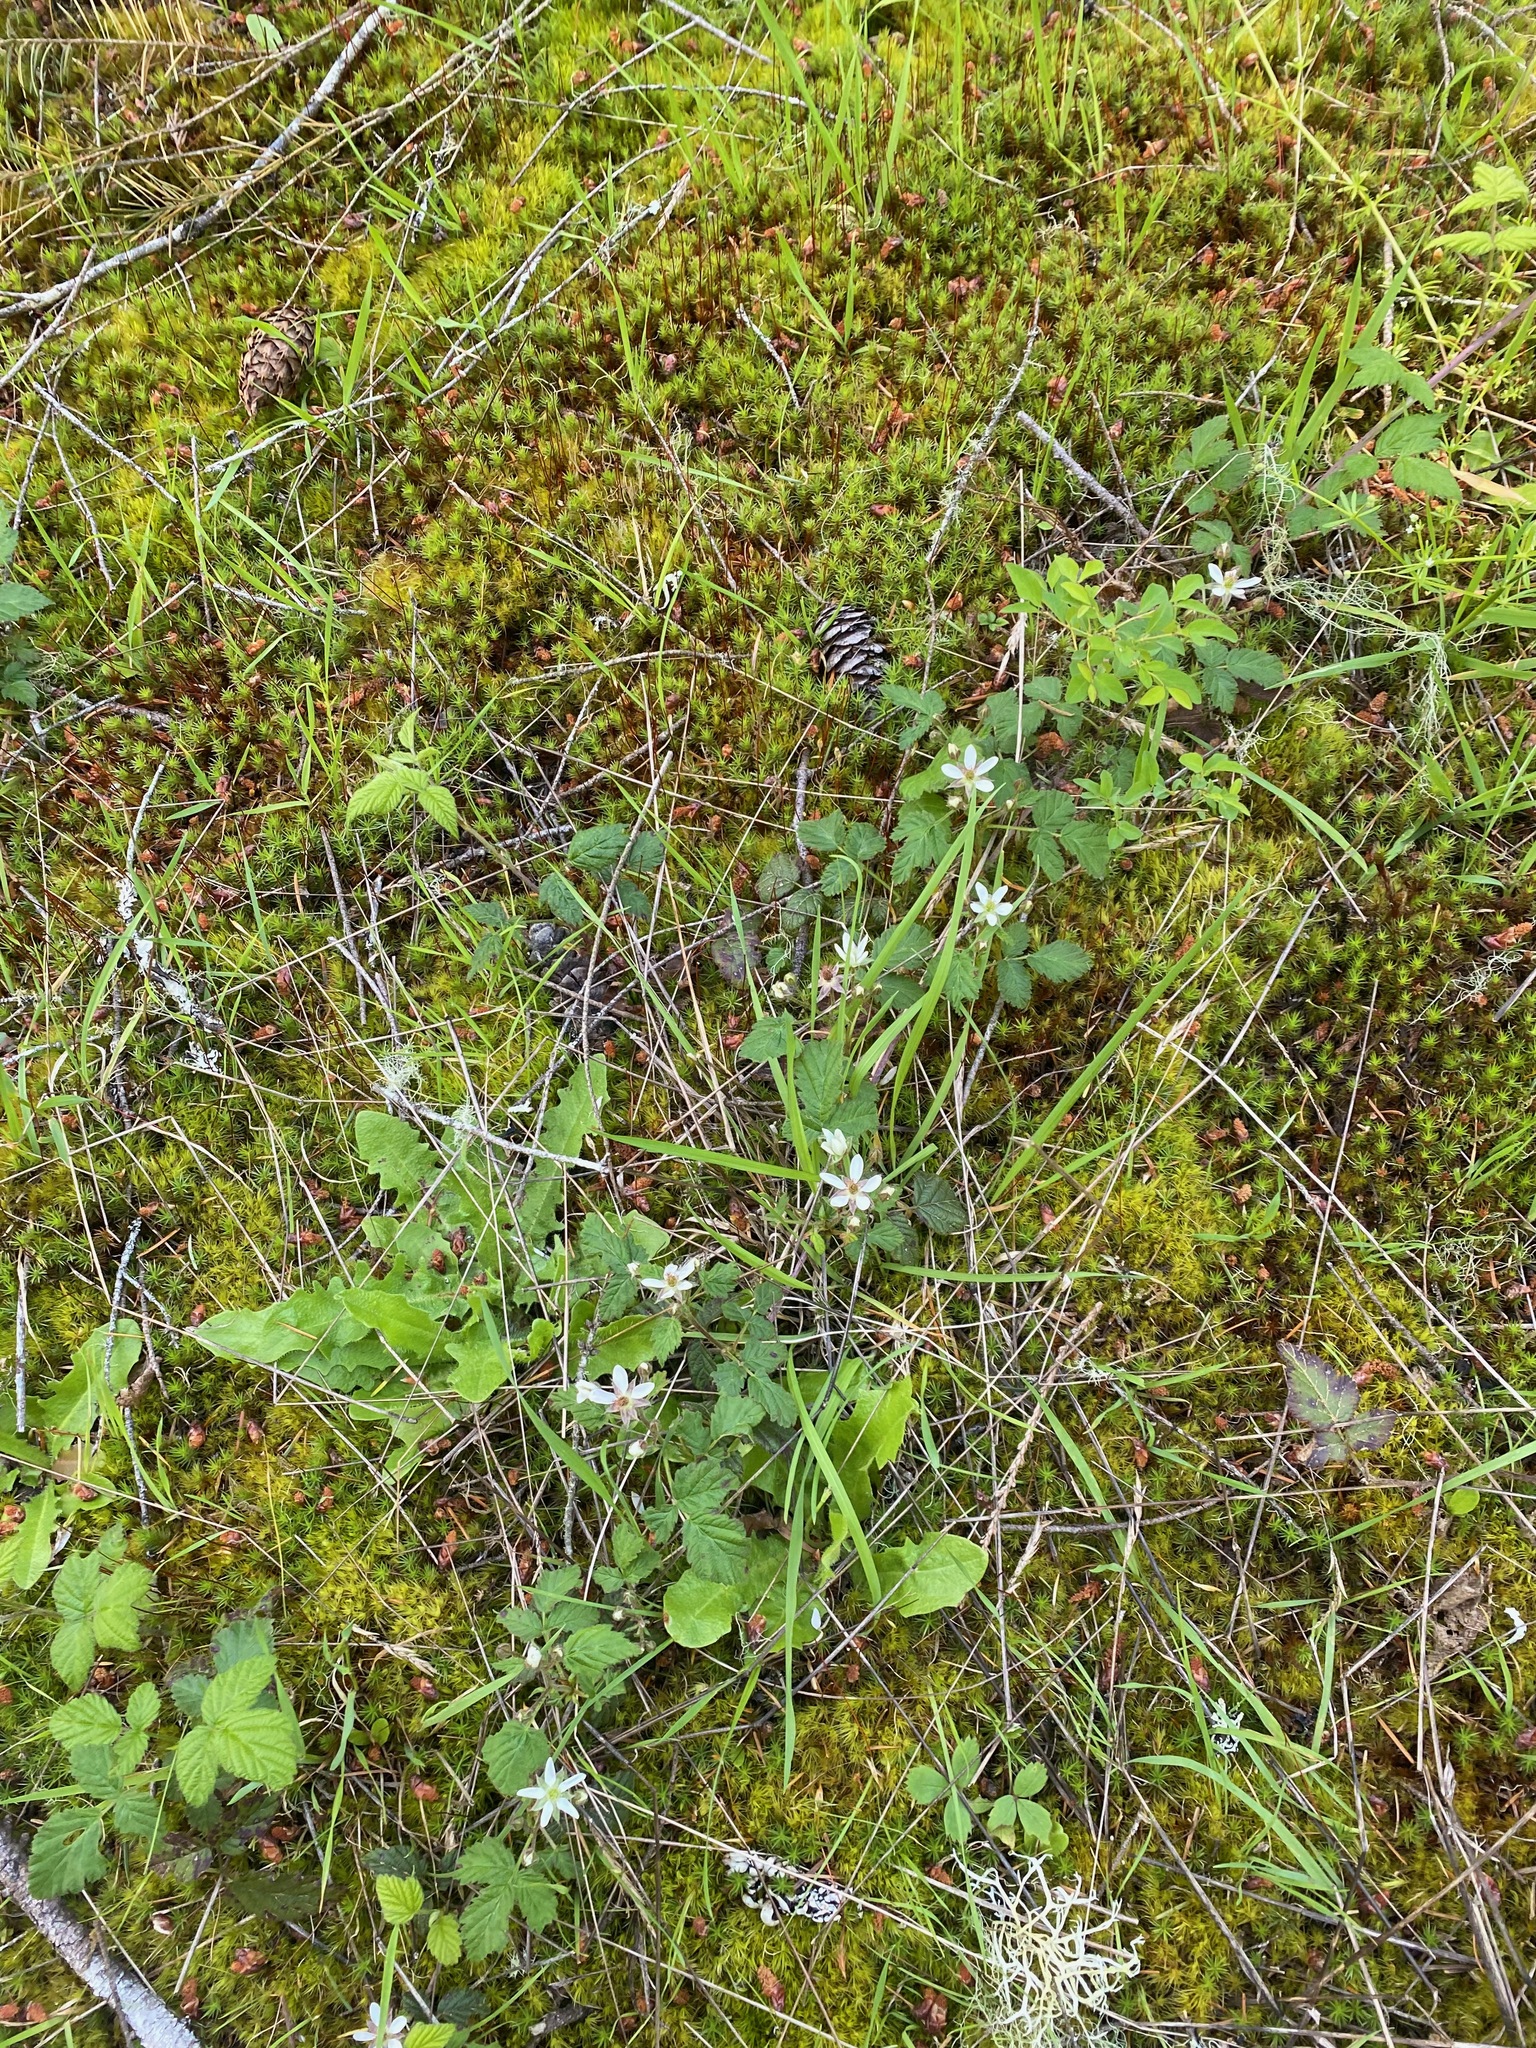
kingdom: Plantae
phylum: Tracheophyta
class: Magnoliopsida
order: Rosales
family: Rosaceae
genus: Rubus
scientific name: Rubus ursinus
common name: Pacific blackberry
